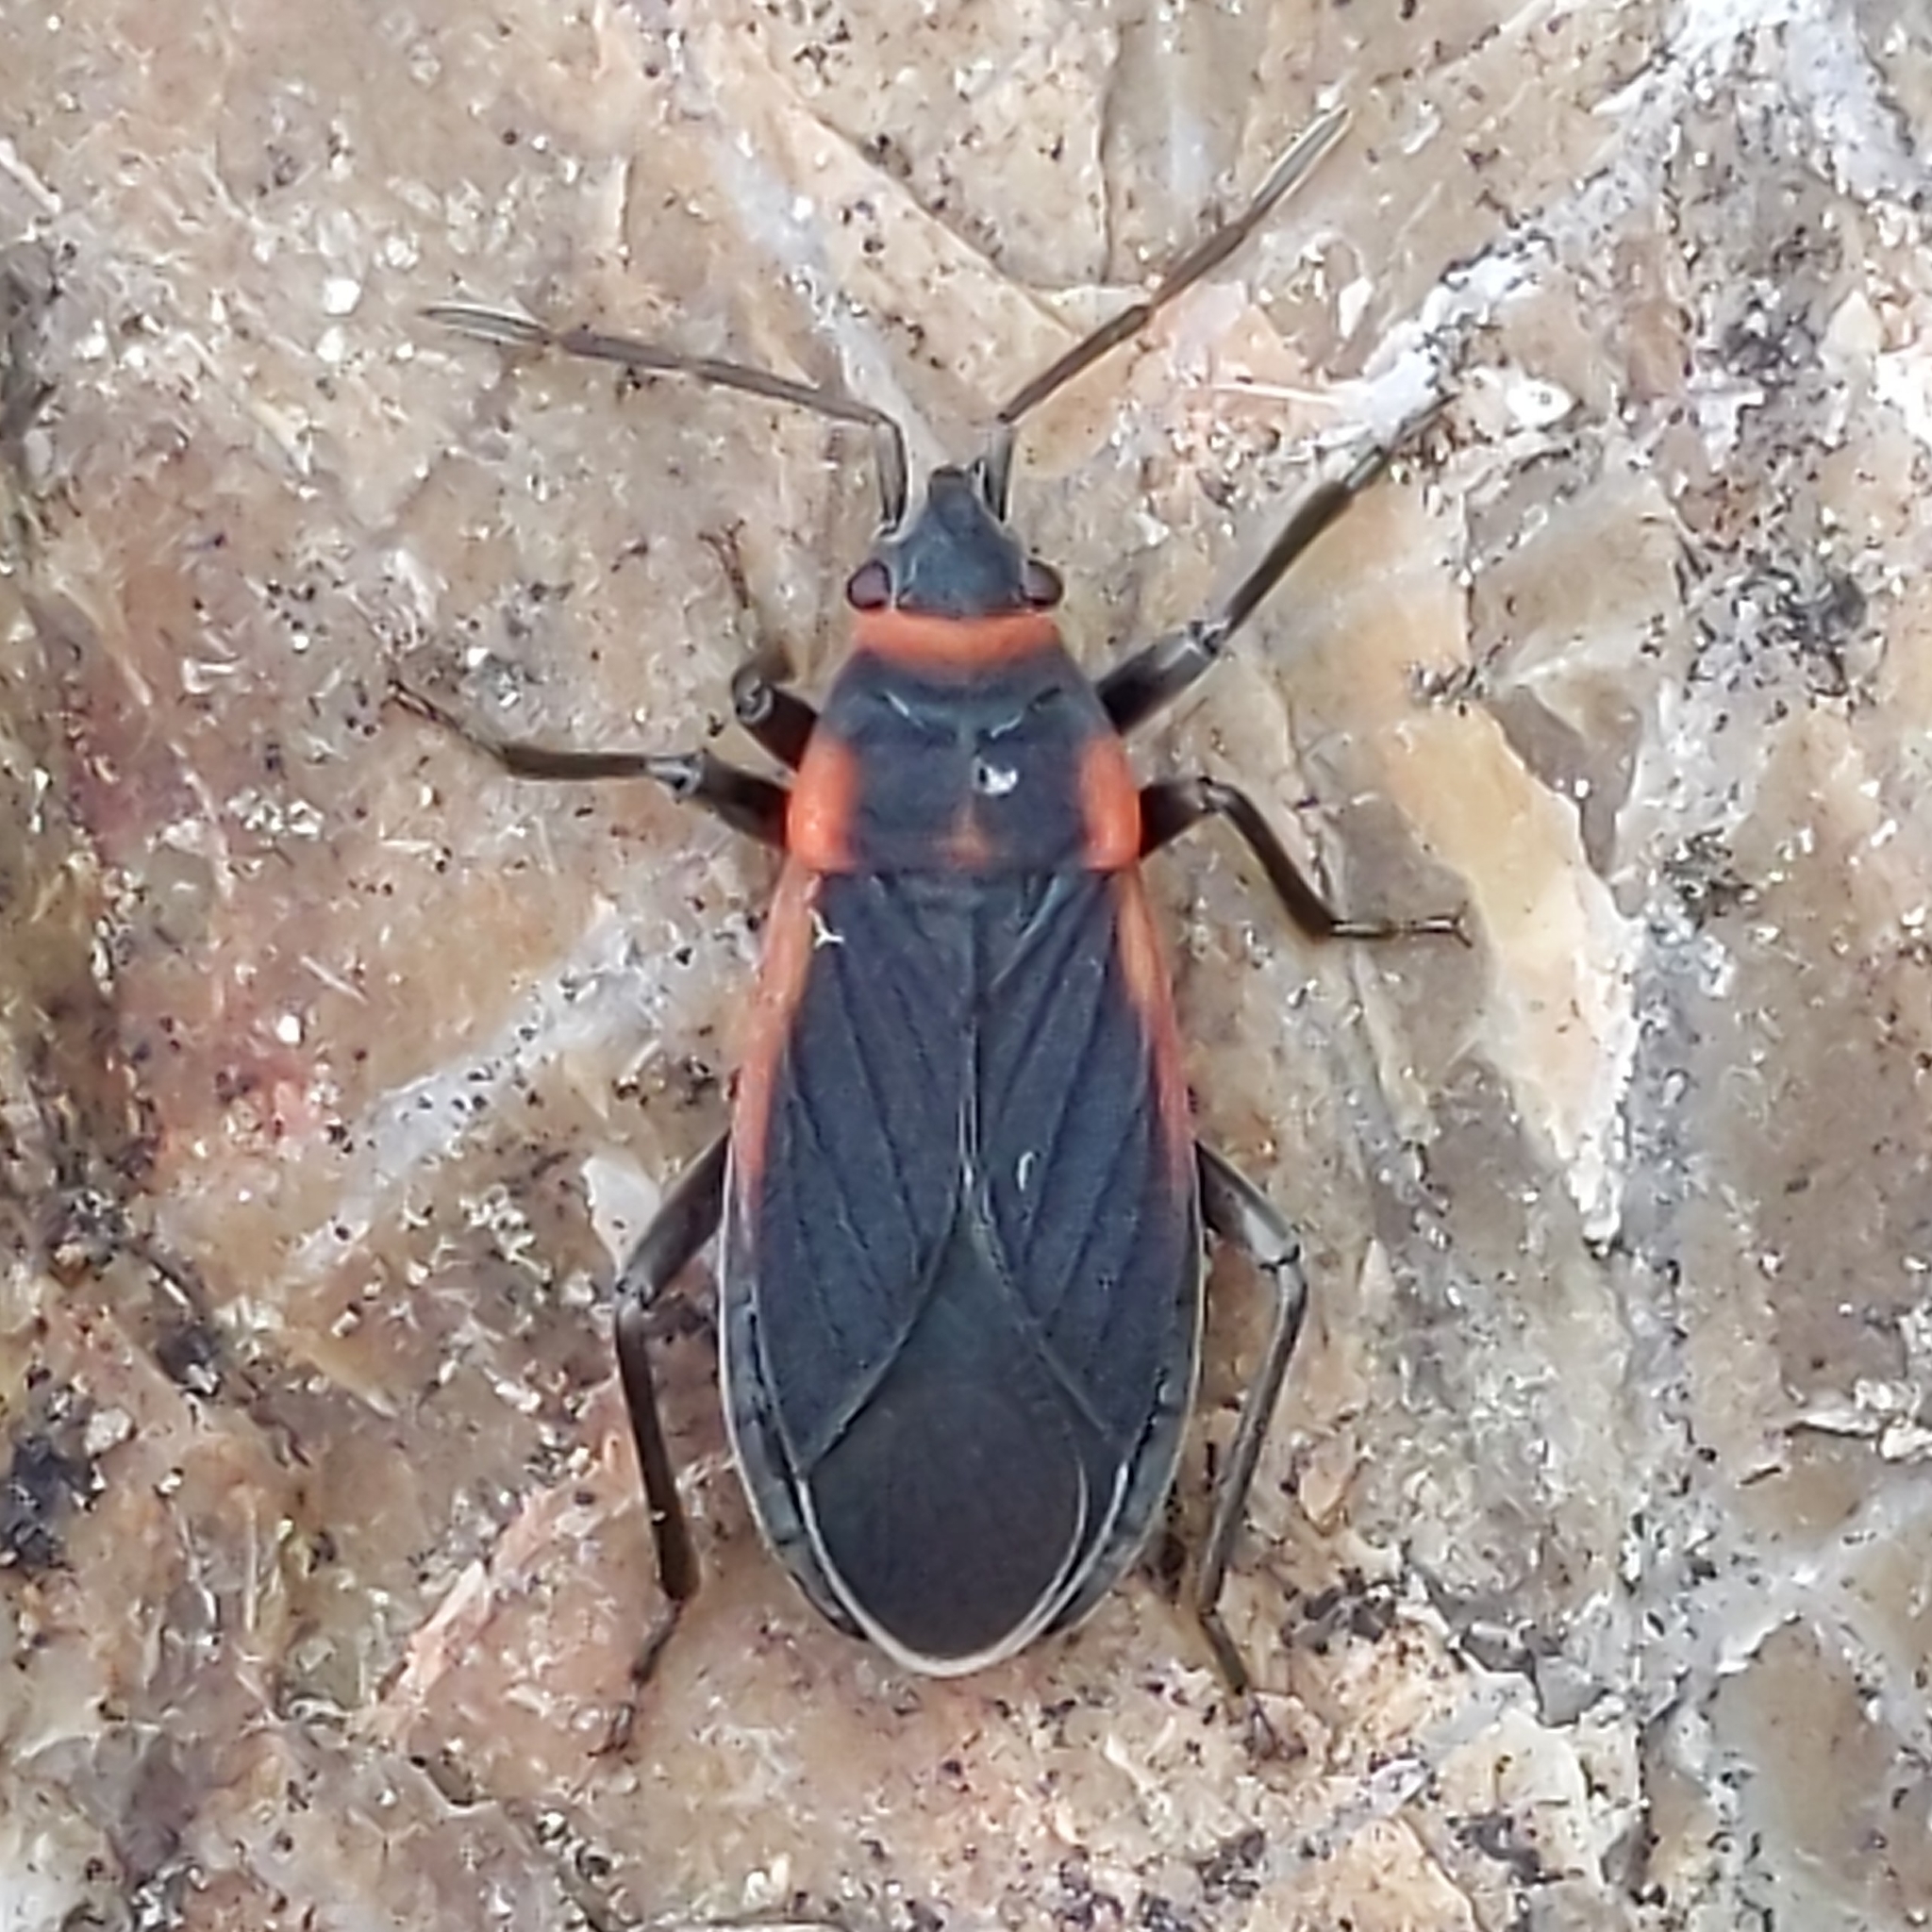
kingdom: Animalia
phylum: Arthropoda
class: Insecta
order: Hemiptera
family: Lygaeidae
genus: Melacoryphus
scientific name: Melacoryphus lateralis
